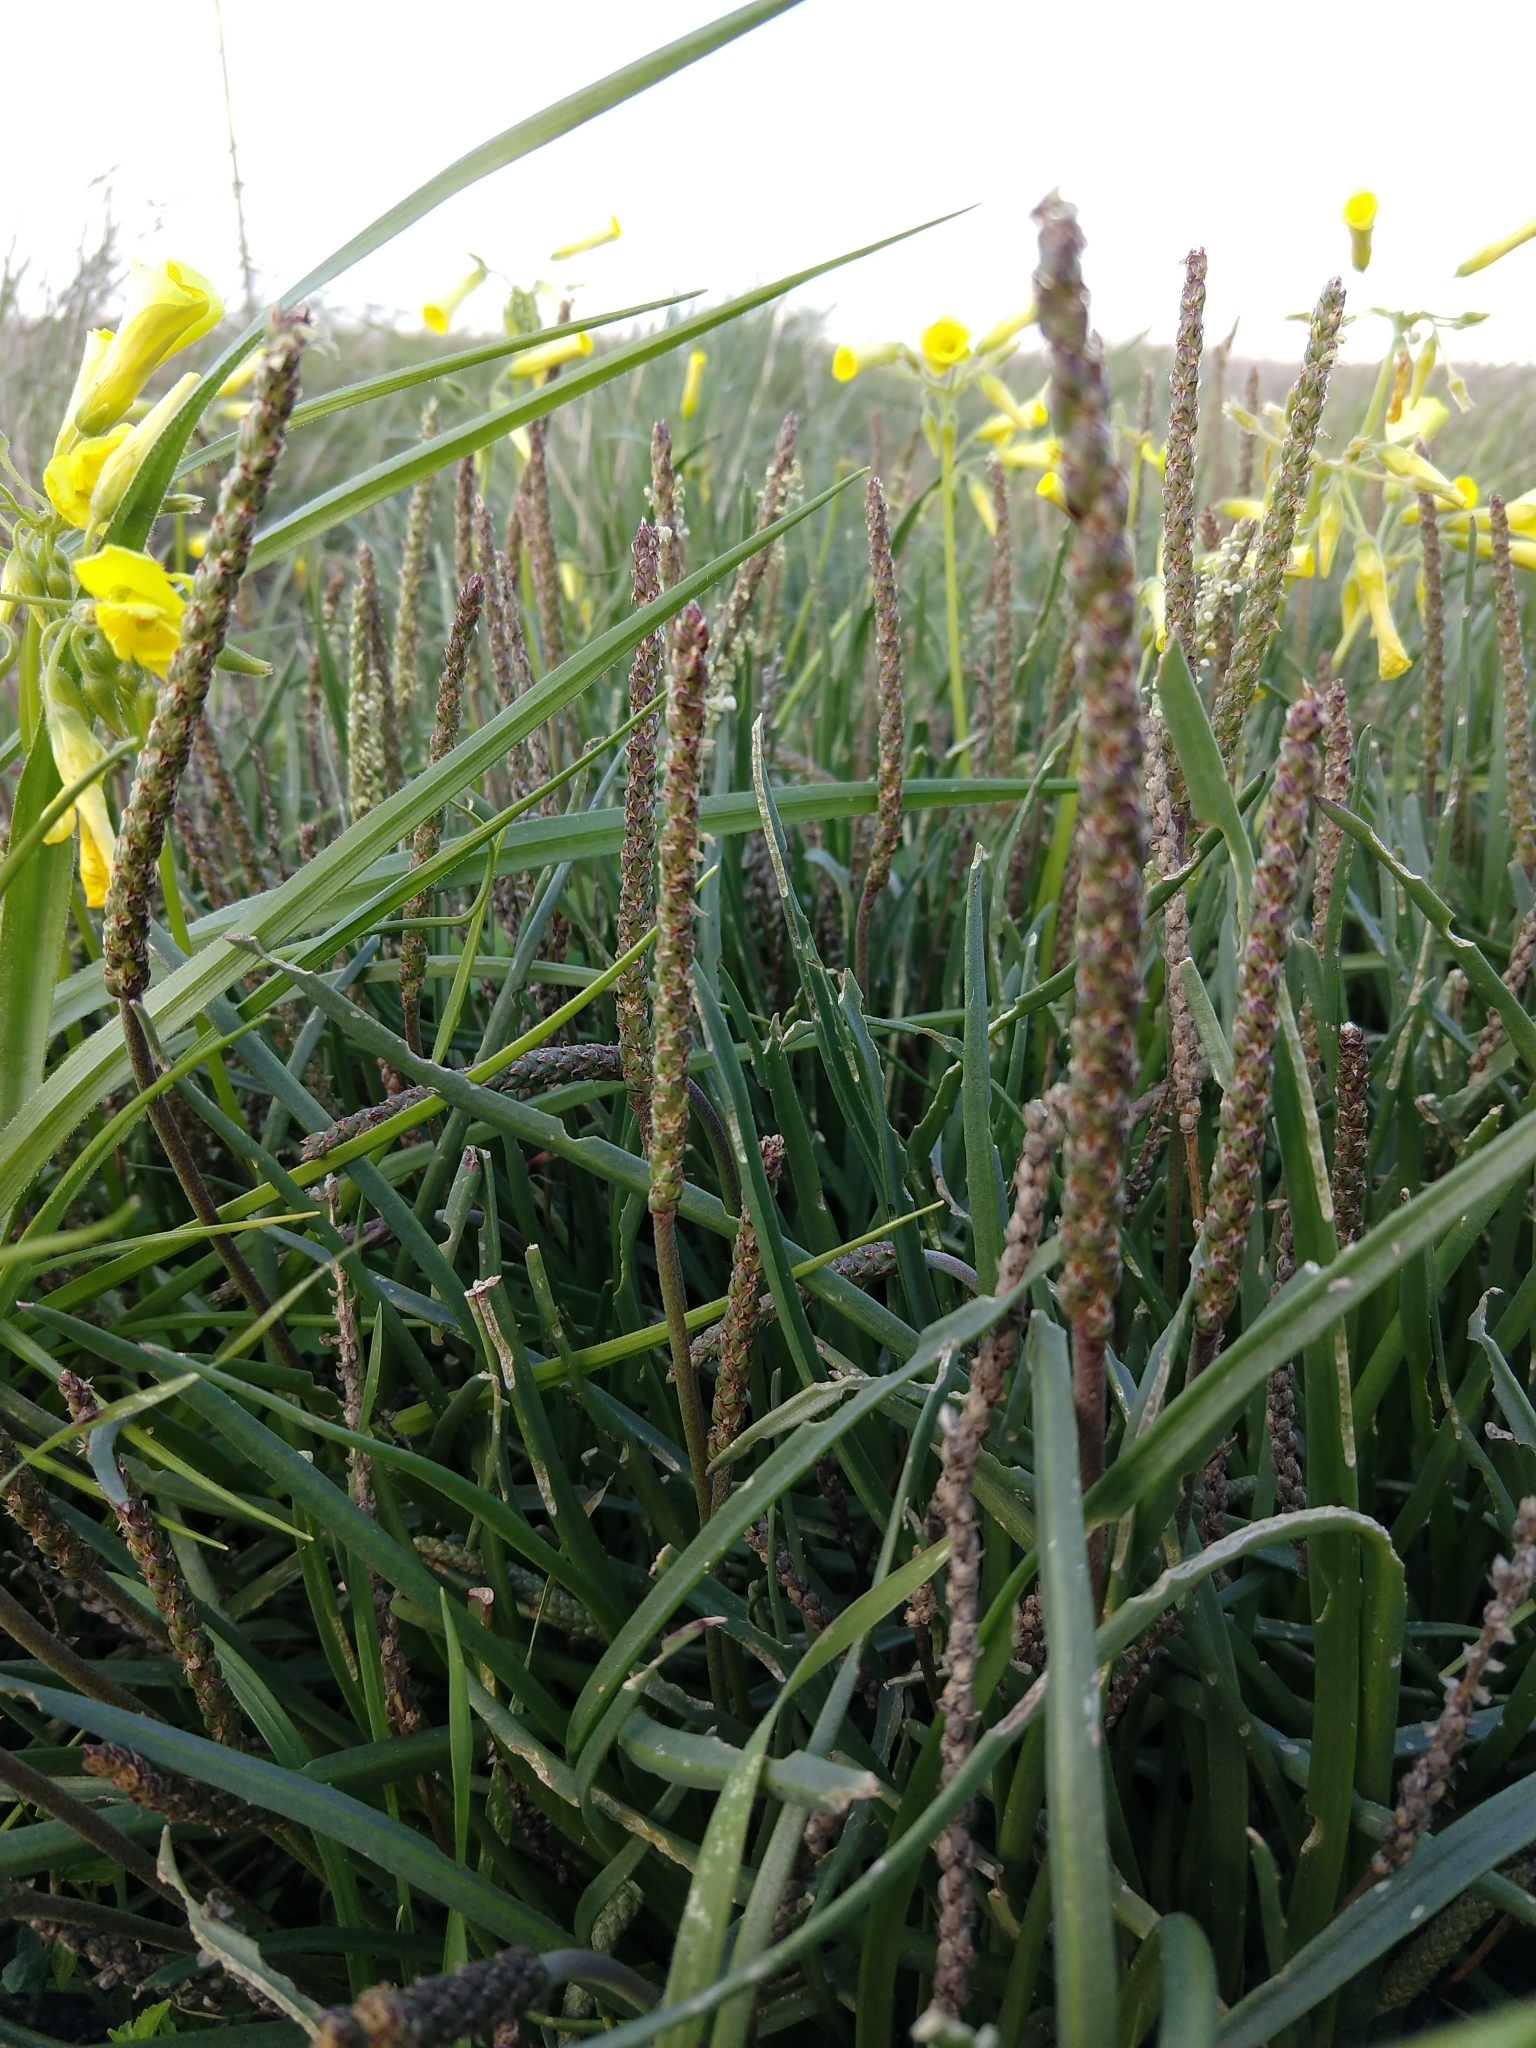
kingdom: Plantae
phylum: Tracheophyta
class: Magnoliopsida
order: Lamiales
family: Plantaginaceae
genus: Plantago
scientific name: Plantago maritima
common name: Sea plantain
